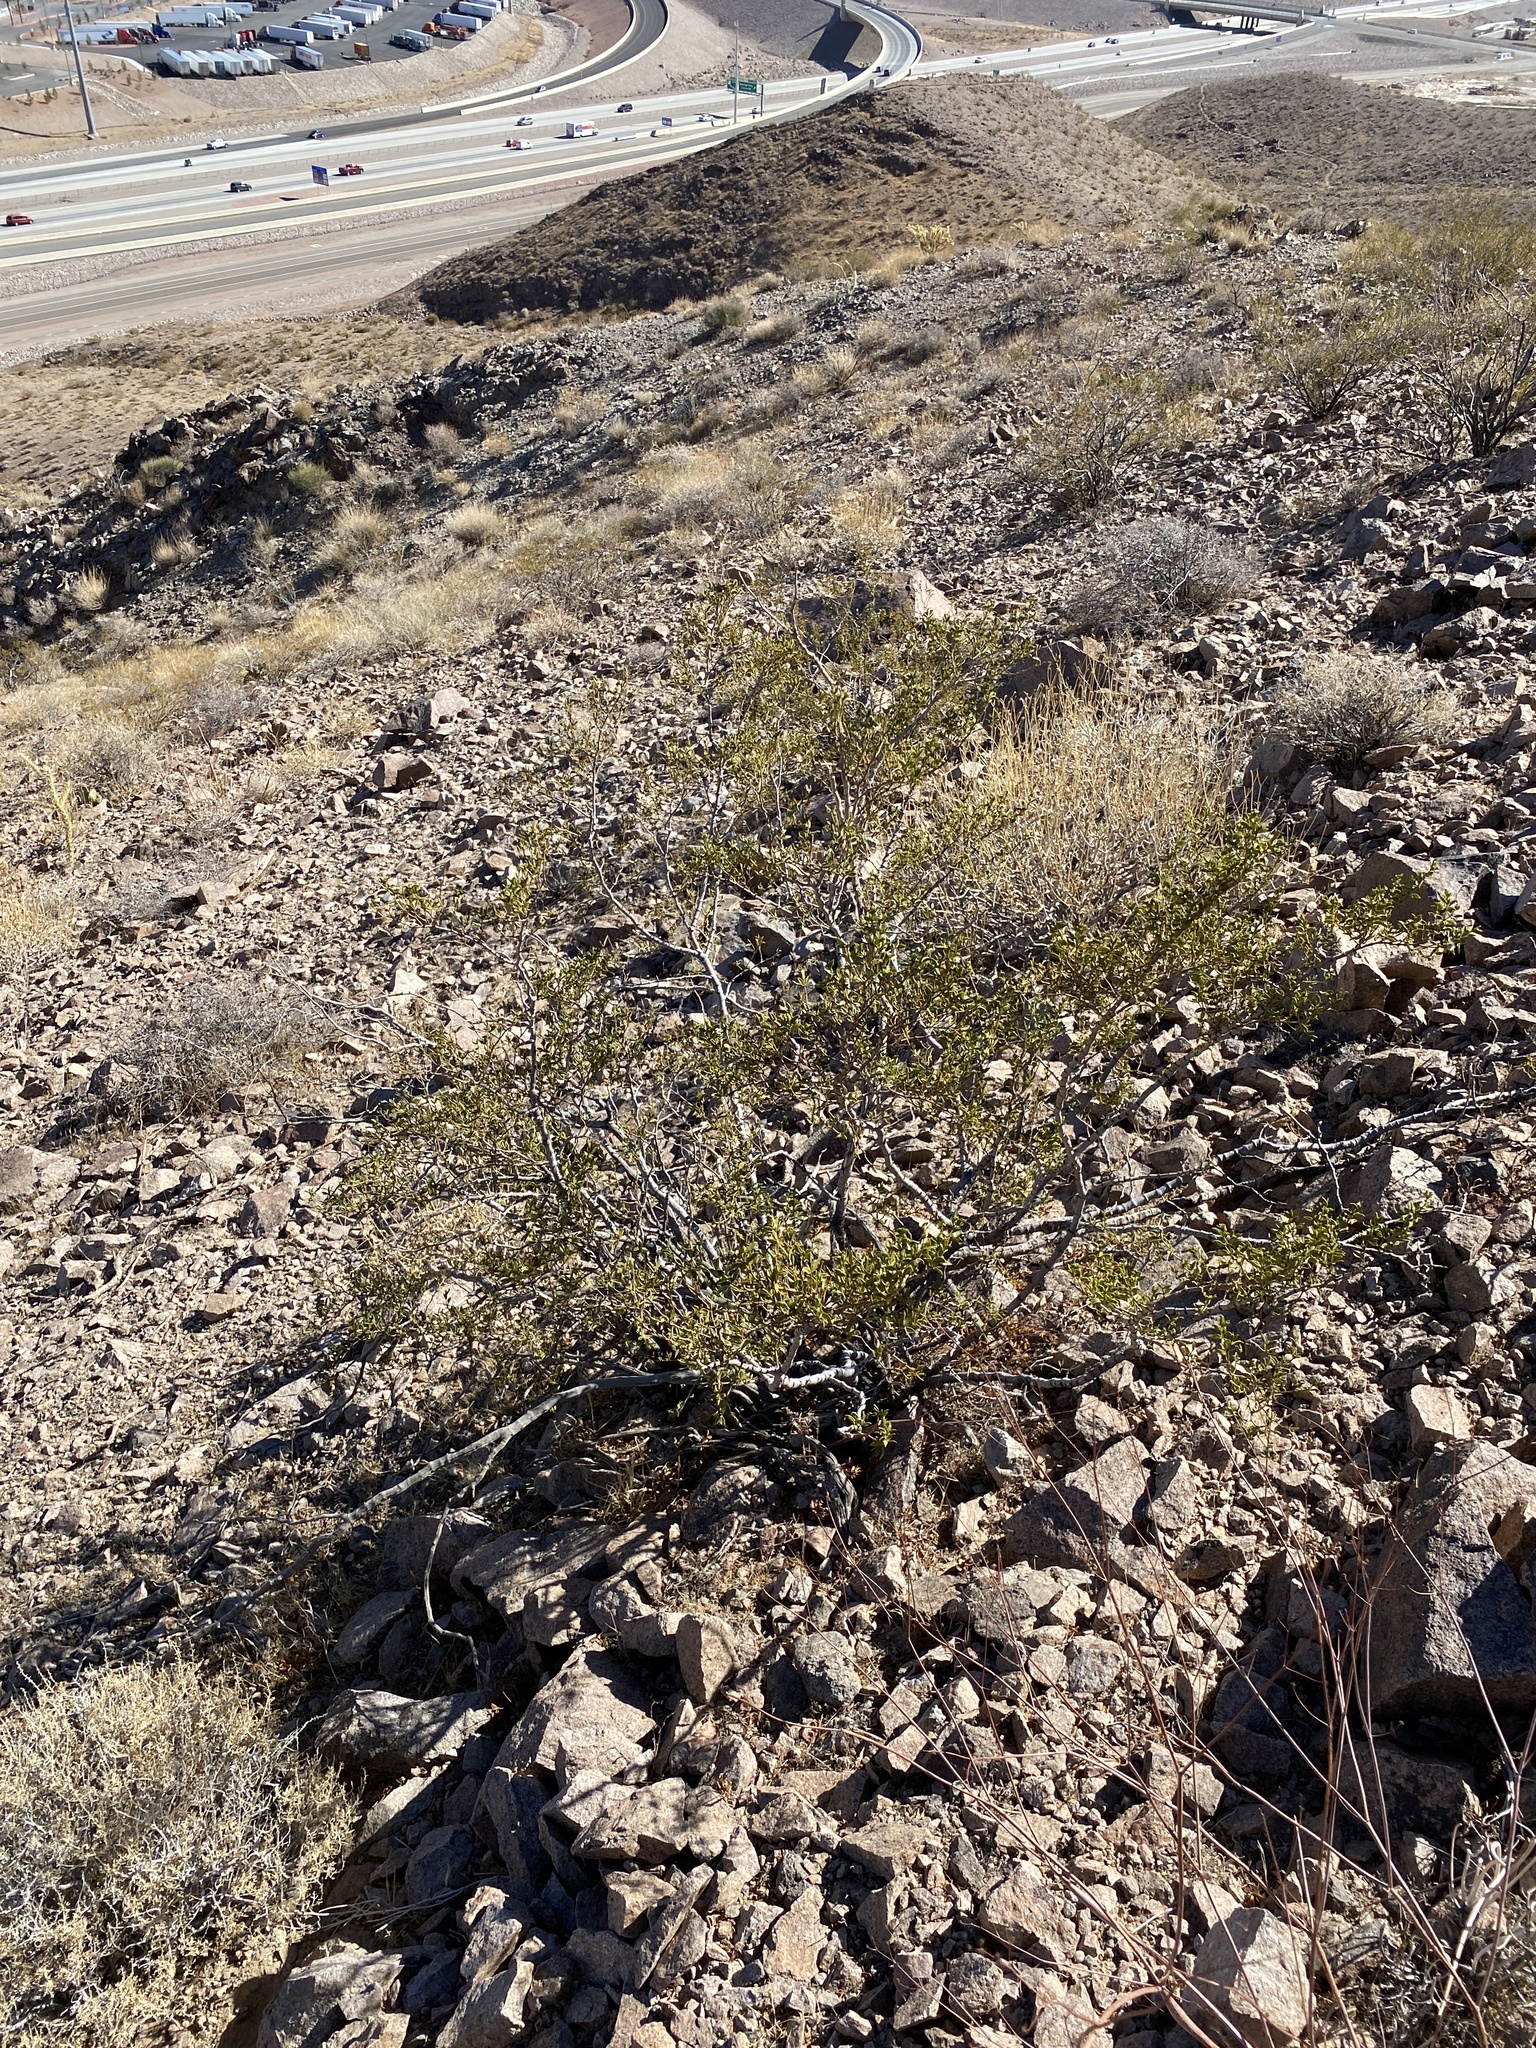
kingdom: Plantae
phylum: Tracheophyta
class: Magnoliopsida
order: Zygophyllales
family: Zygophyllaceae
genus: Larrea
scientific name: Larrea tridentata
